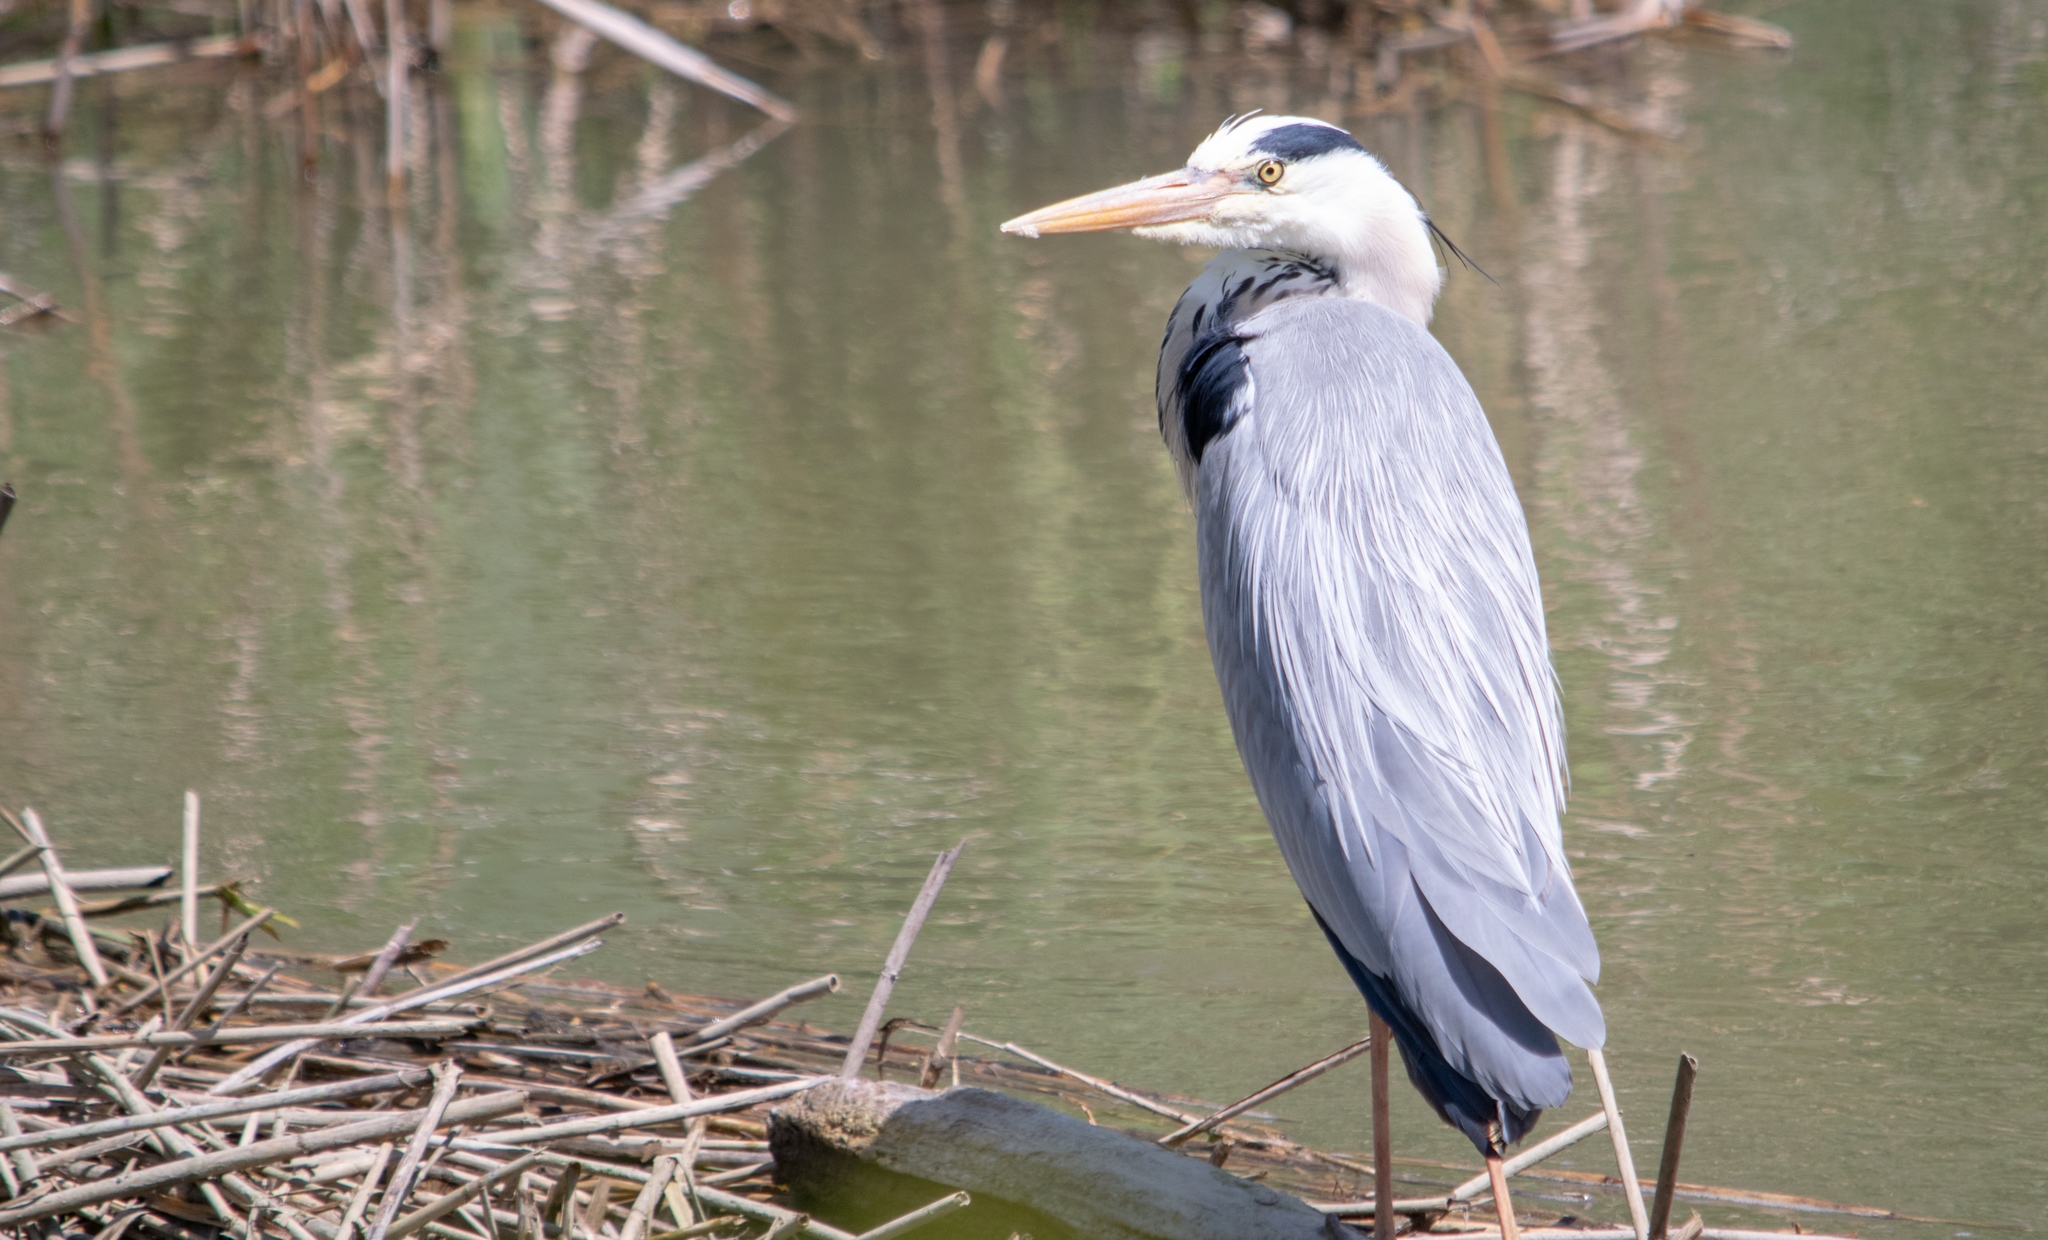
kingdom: Animalia
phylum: Chordata
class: Aves
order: Pelecaniformes
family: Ardeidae
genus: Ardea
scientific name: Ardea cinerea
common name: Grey heron
